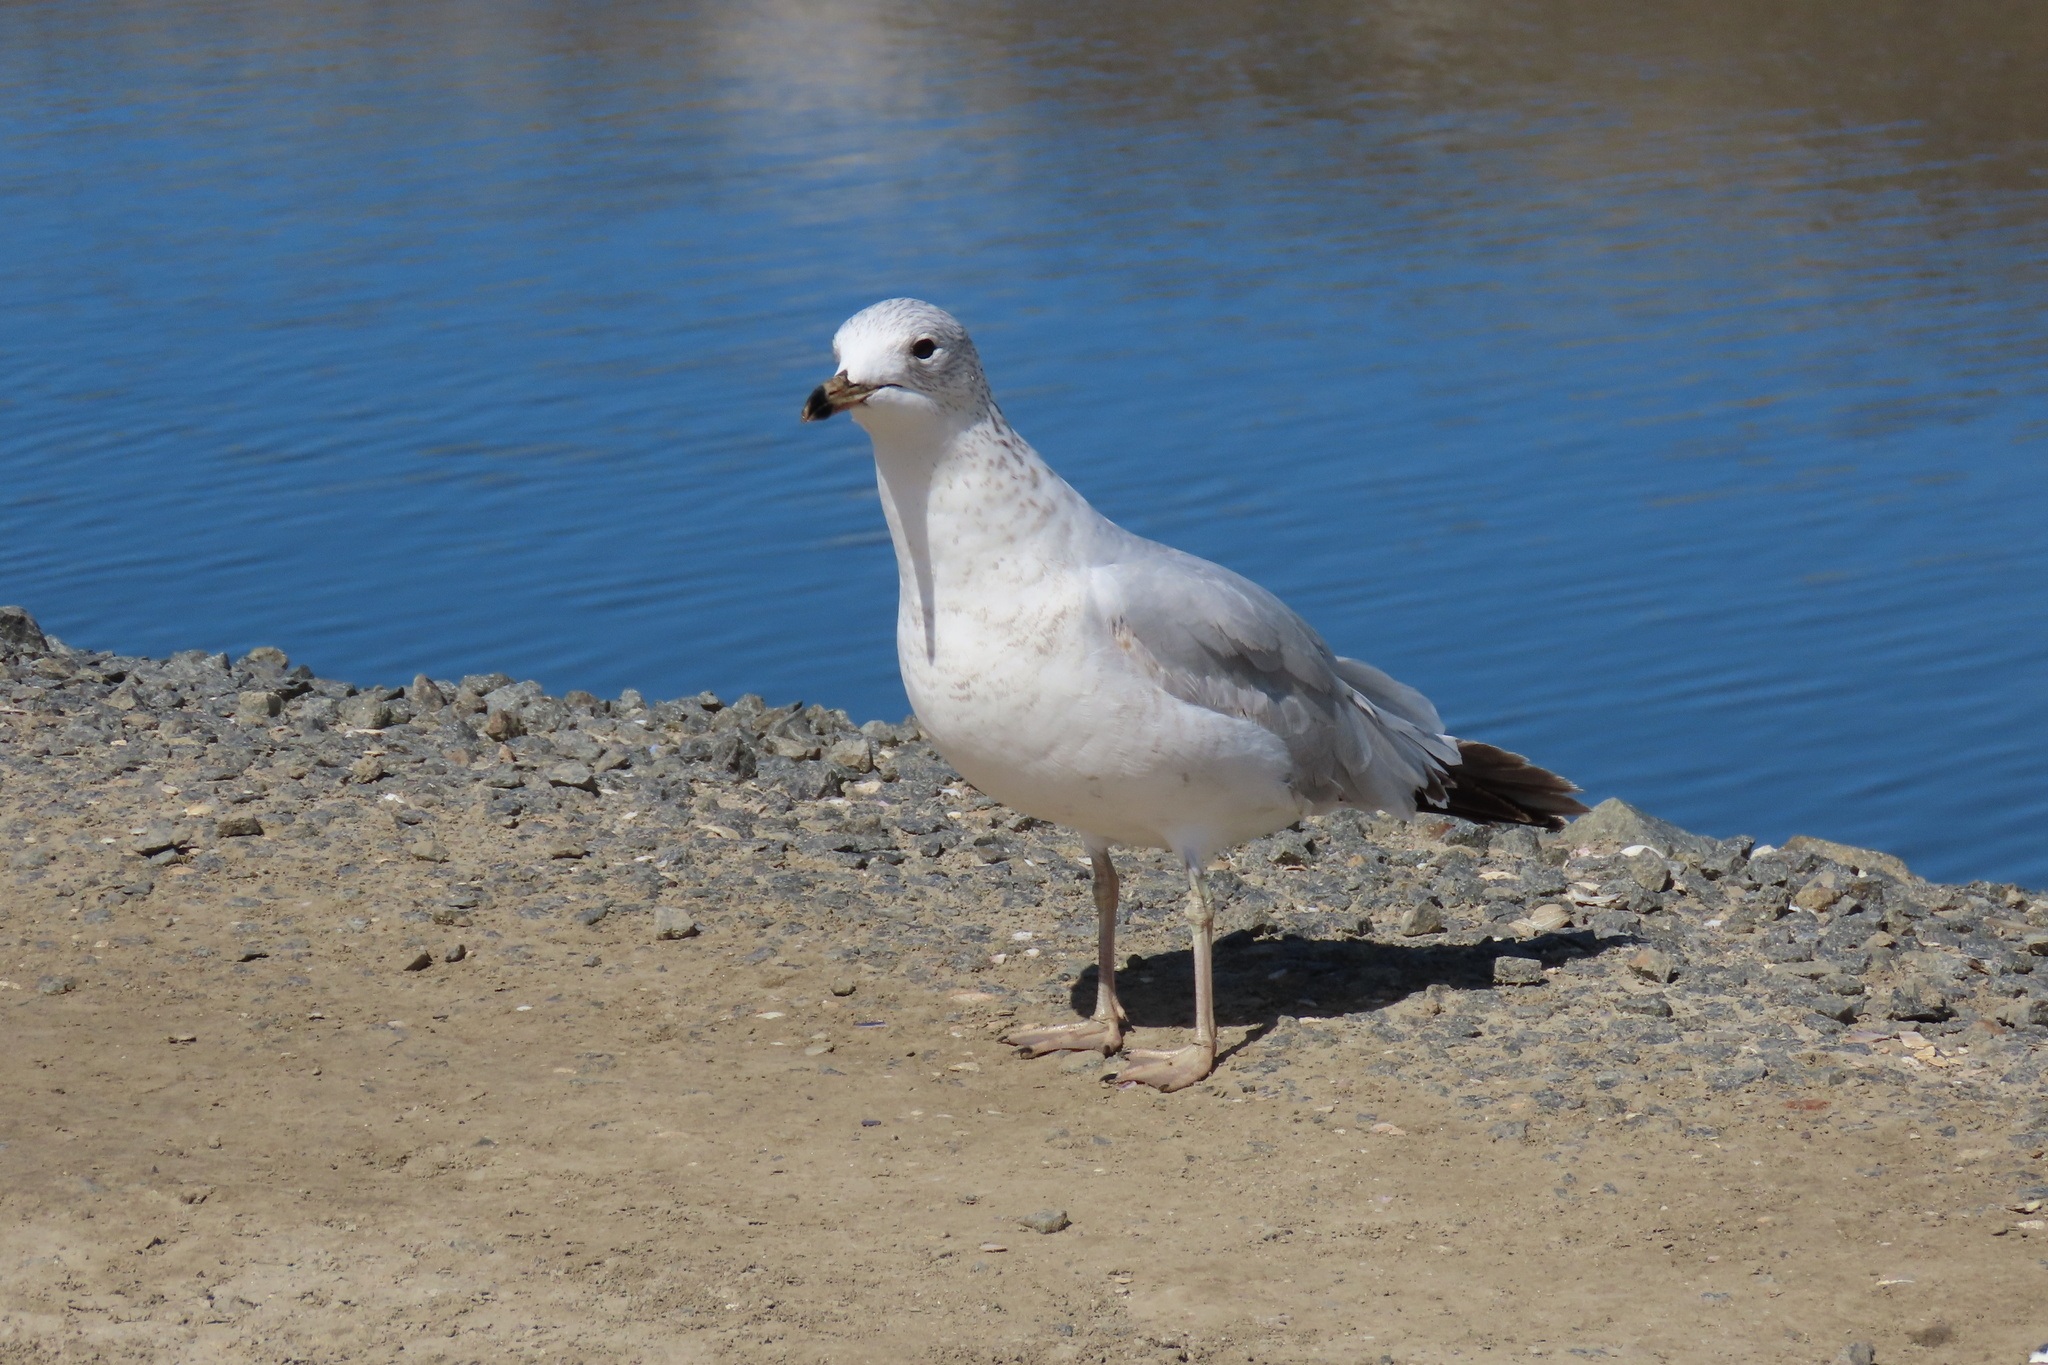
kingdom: Animalia
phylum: Chordata
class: Aves
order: Charadriiformes
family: Laridae
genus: Larus
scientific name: Larus delawarensis
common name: Ring-billed gull
